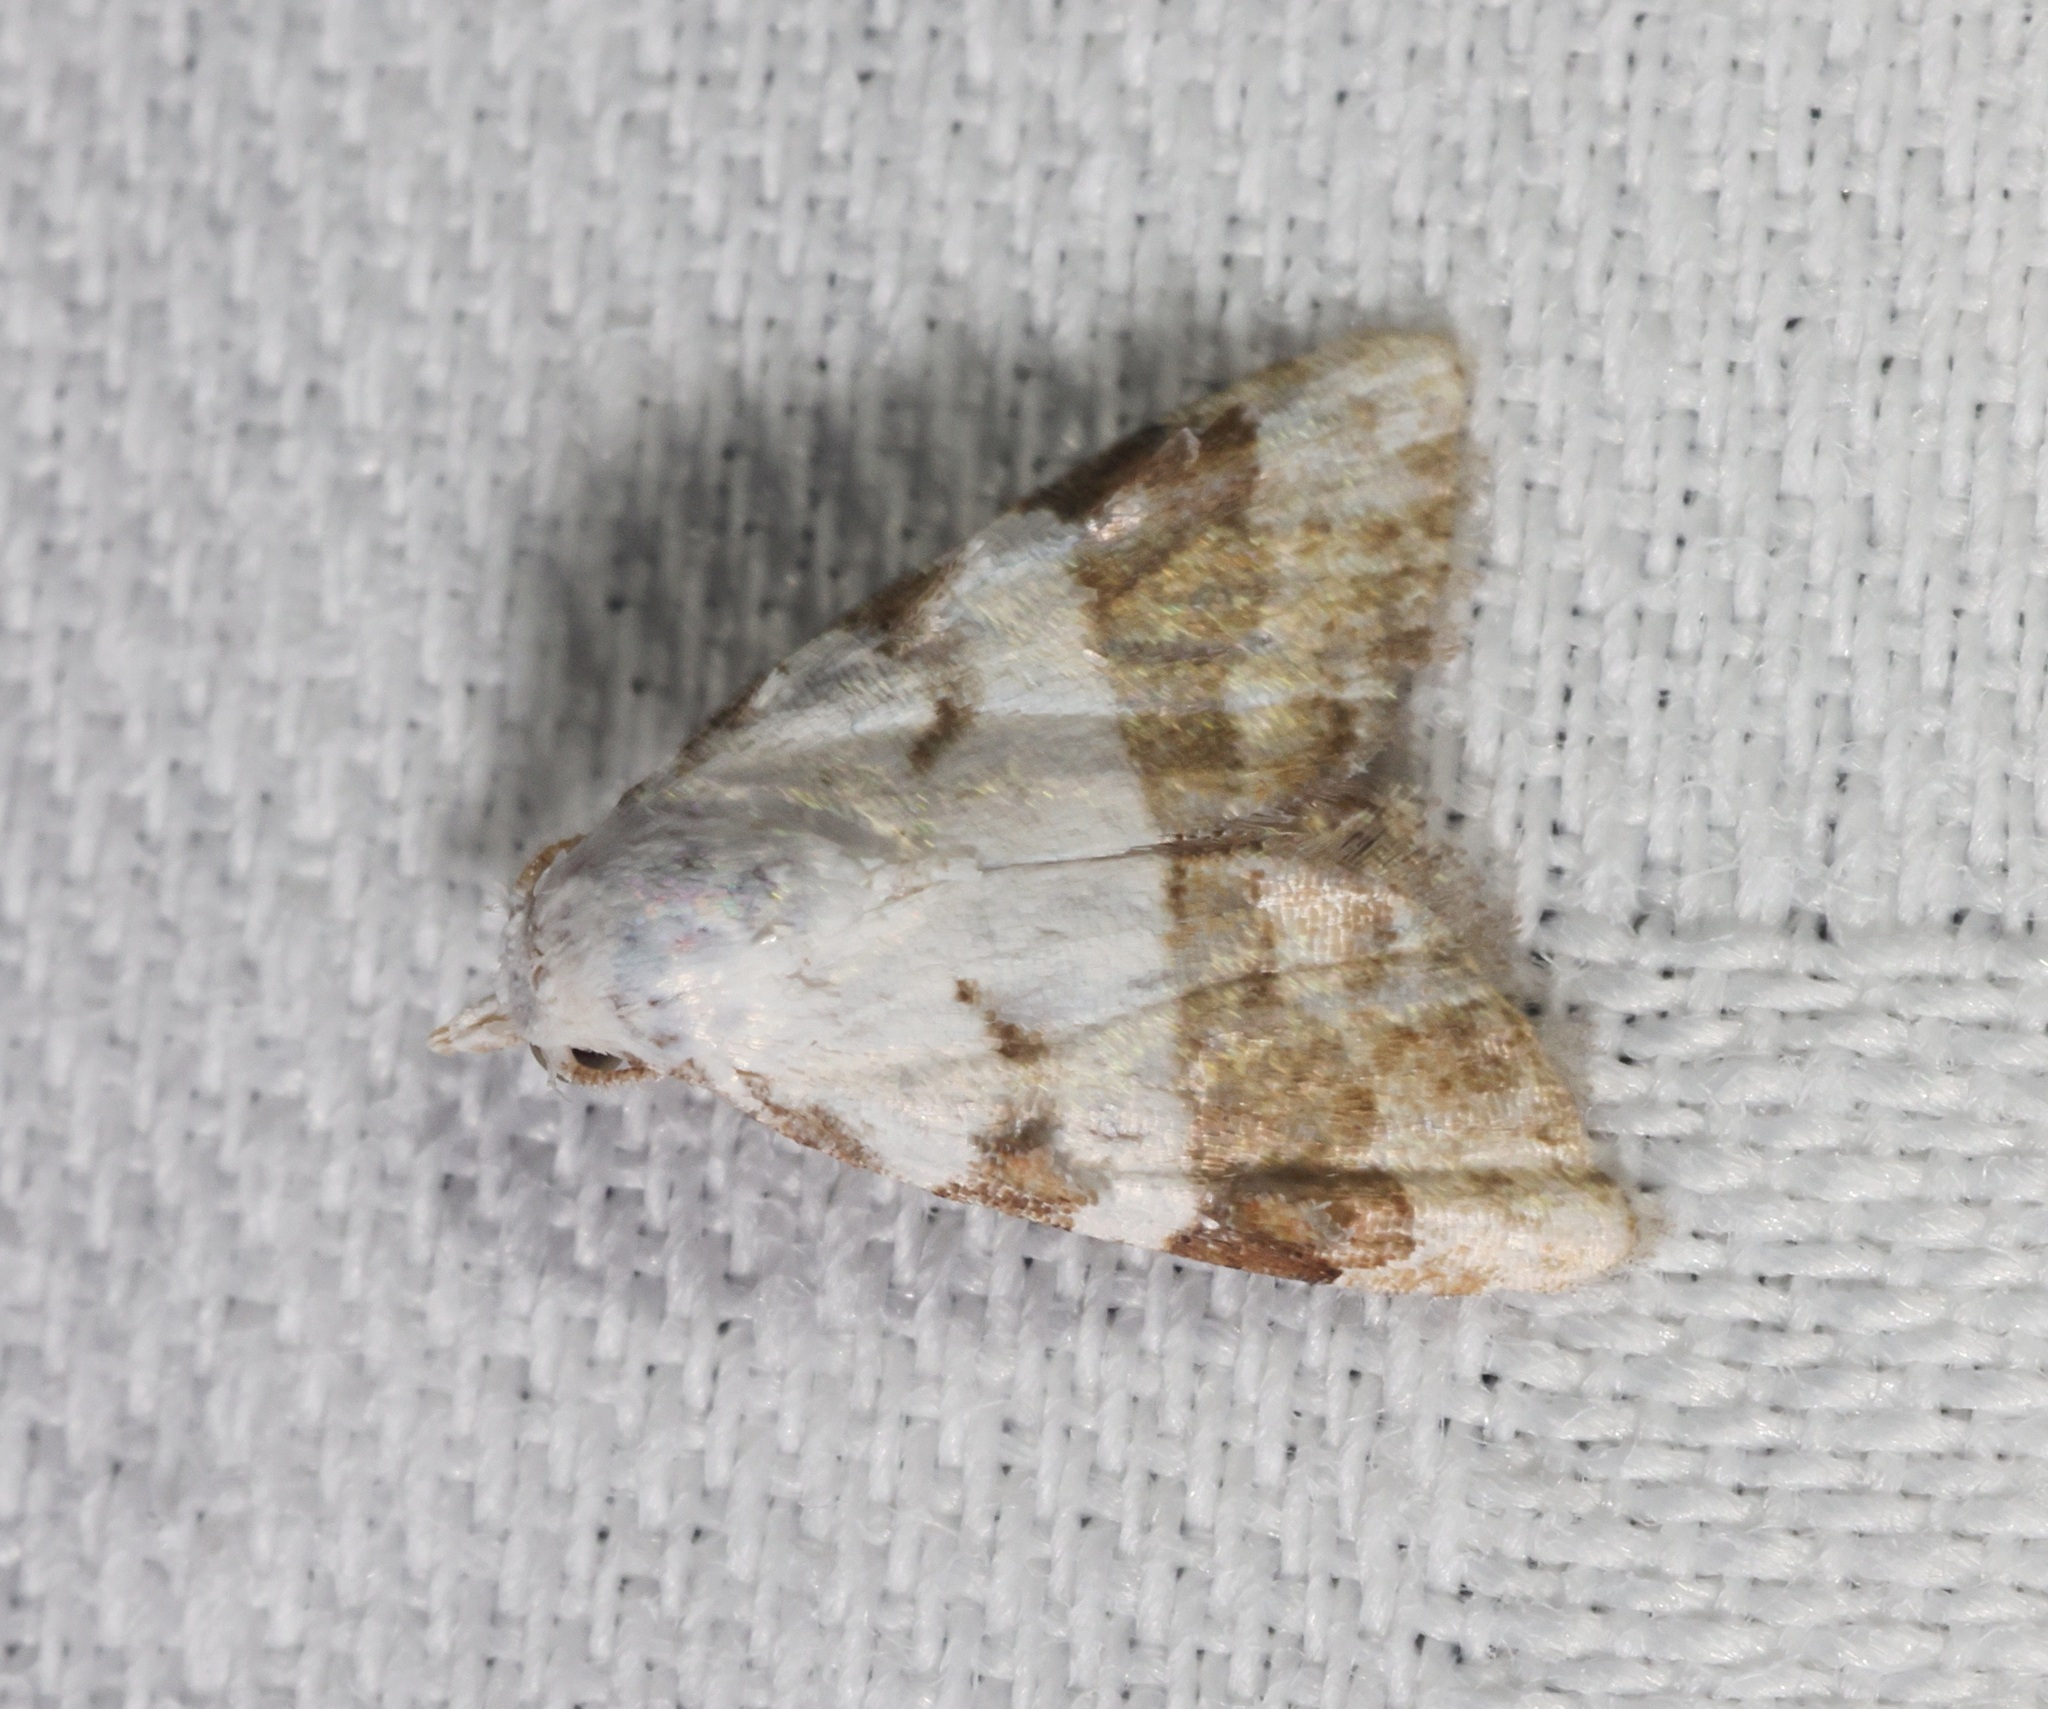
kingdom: Animalia
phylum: Arthropoda
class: Insecta
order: Lepidoptera
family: Nolidae
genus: Nola
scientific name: Nola lucidalis
